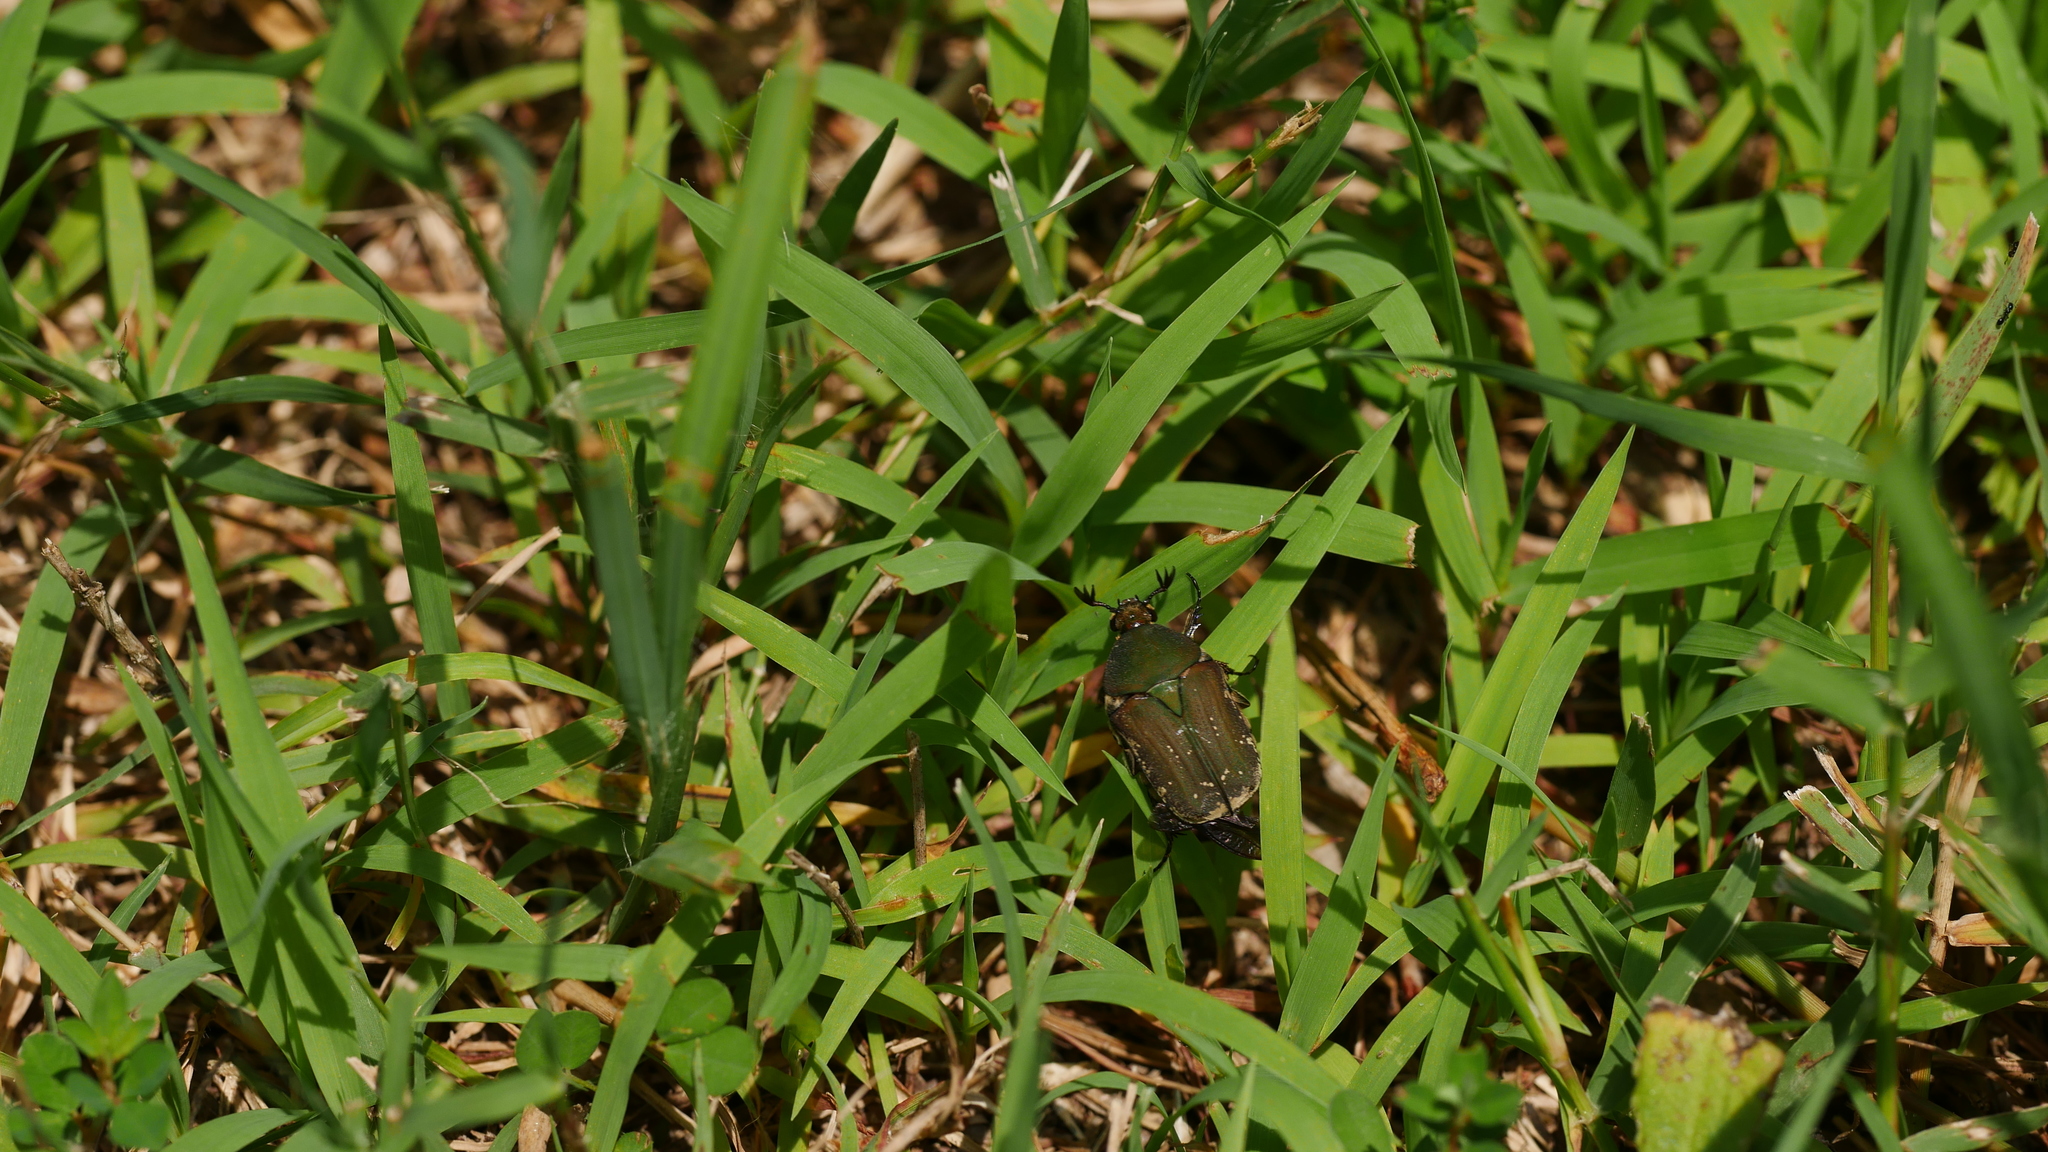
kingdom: Animalia
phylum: Arthropoda
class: Insecta
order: Coleoptera
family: Scarabaeidae
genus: Cotinis
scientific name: Cotinis nitida
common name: Common green june beetle
